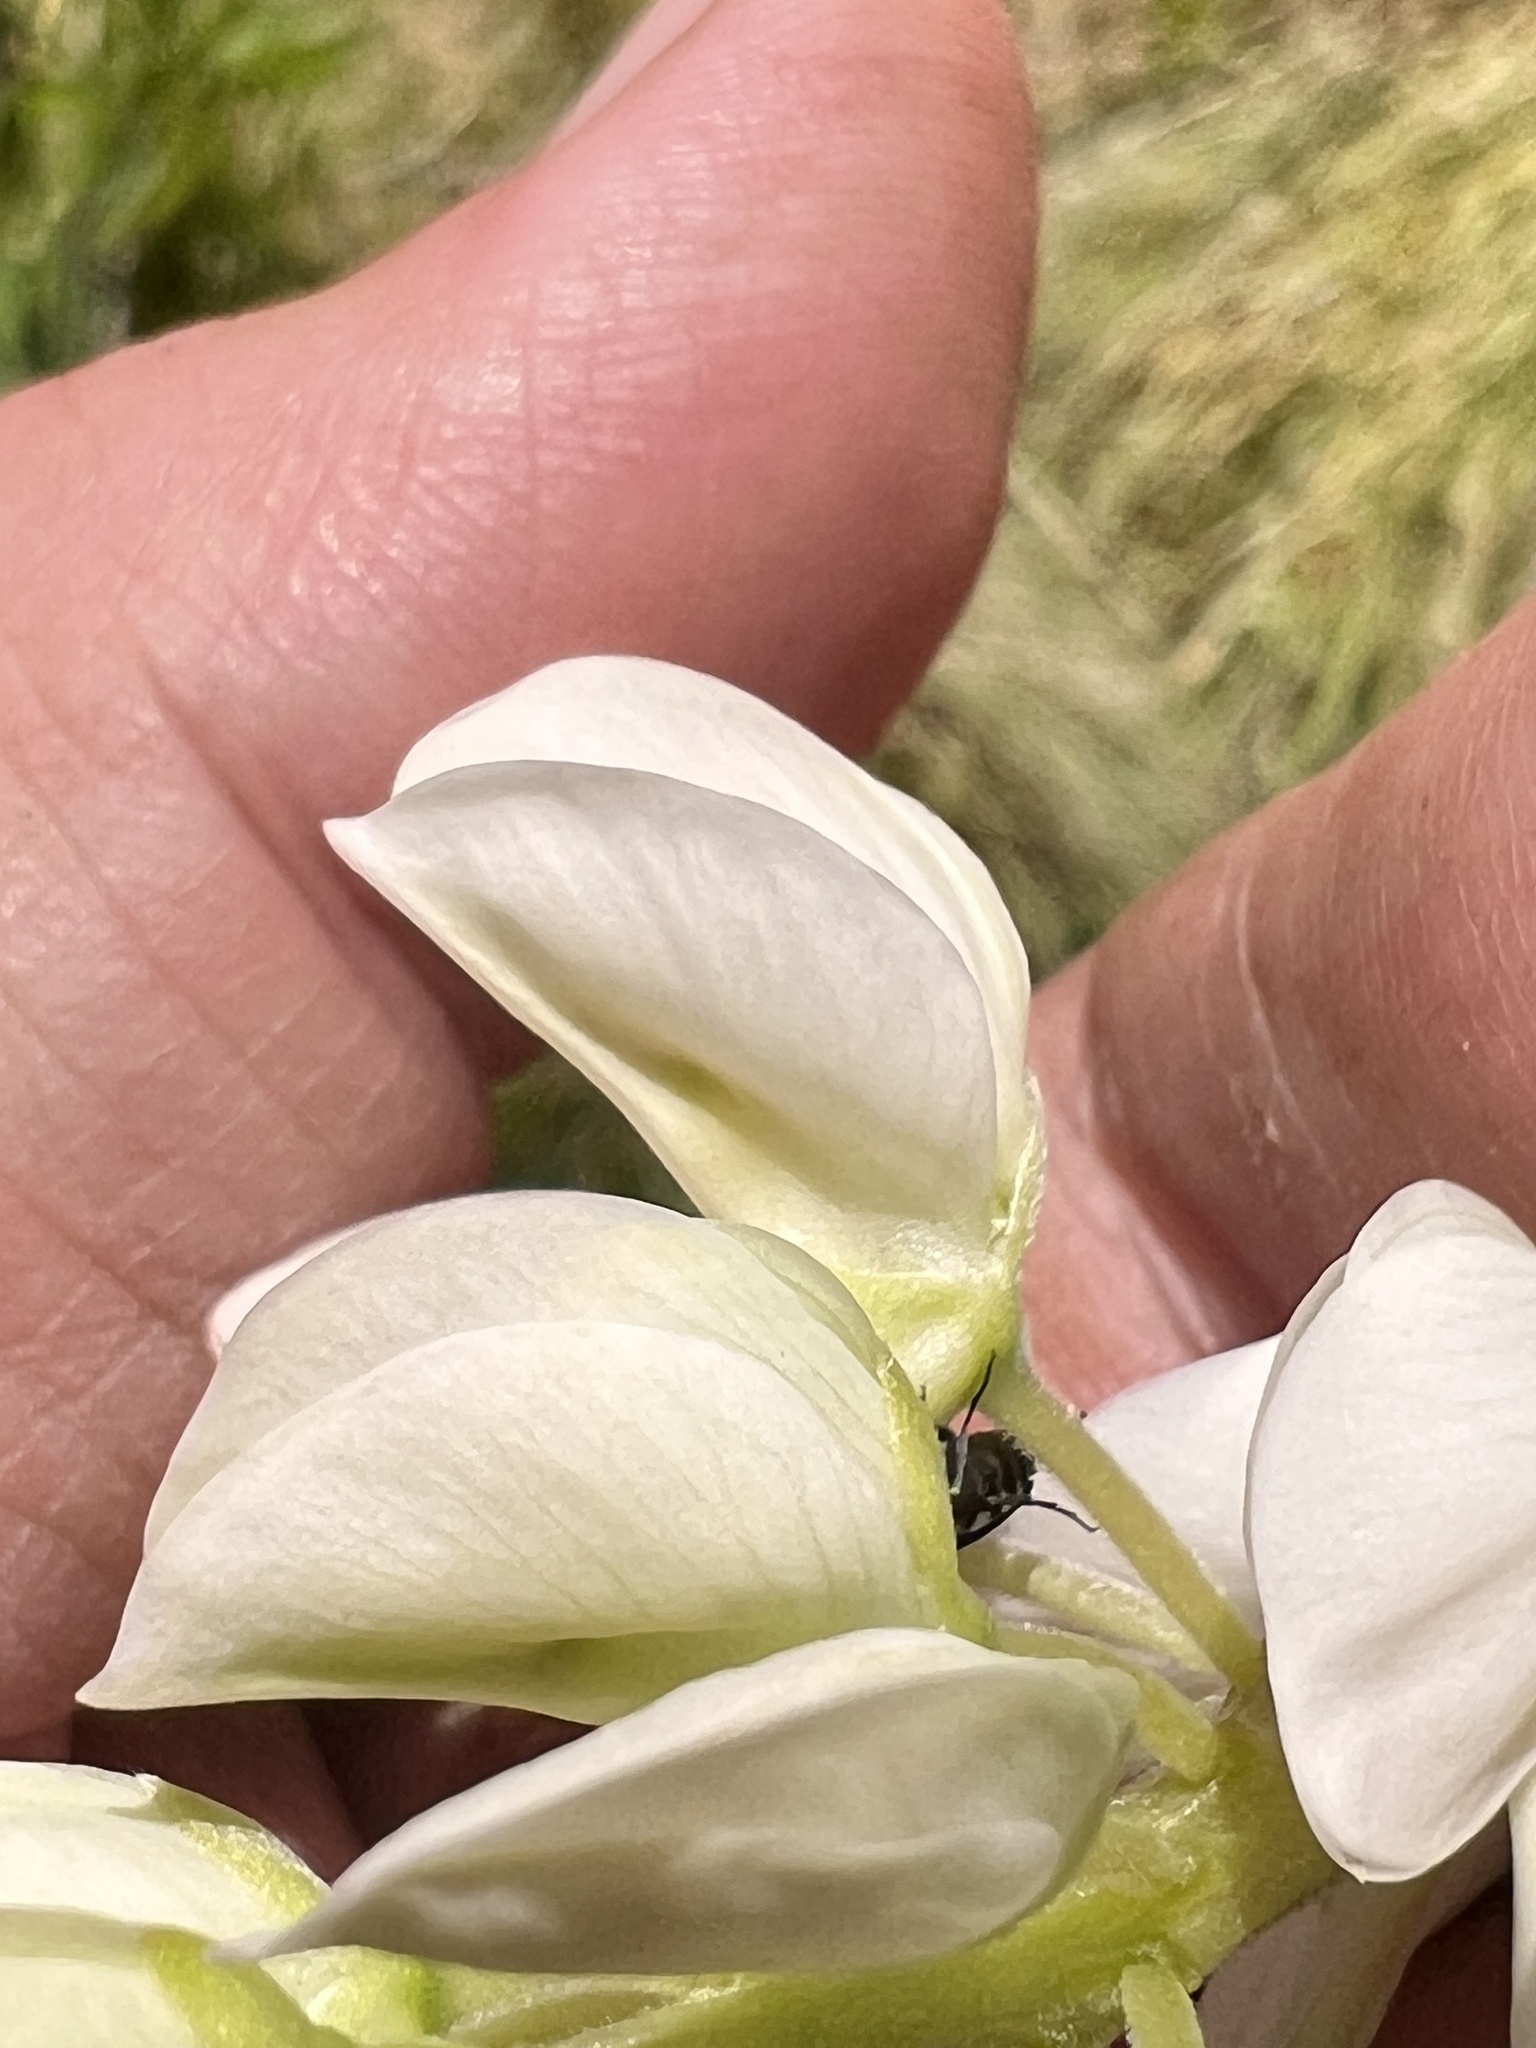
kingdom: Plantae
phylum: Tracheophyta
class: Magnoliopsida
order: Fabales
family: Fabaceae
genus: Lupinus
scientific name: Lupinus polyphyllus
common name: Garden lupin
